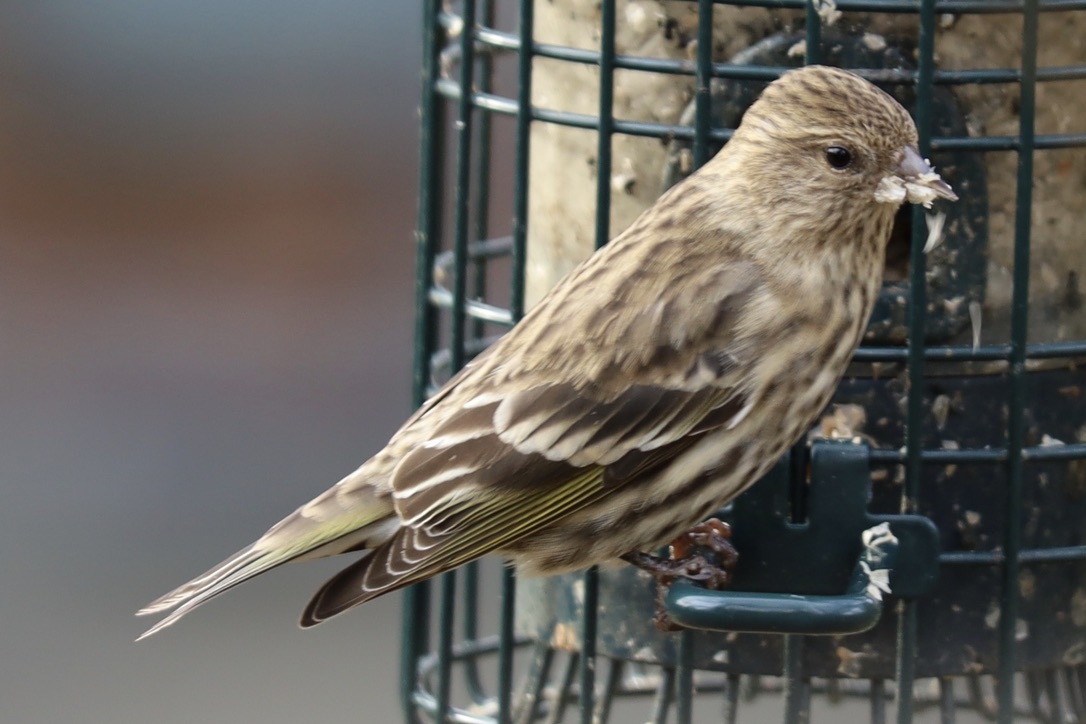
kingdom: Animalia
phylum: Chordata
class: Aves
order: Passeriformes
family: Fringillidae
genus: Spinus
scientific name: Spinus pinus
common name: Pine siskin
